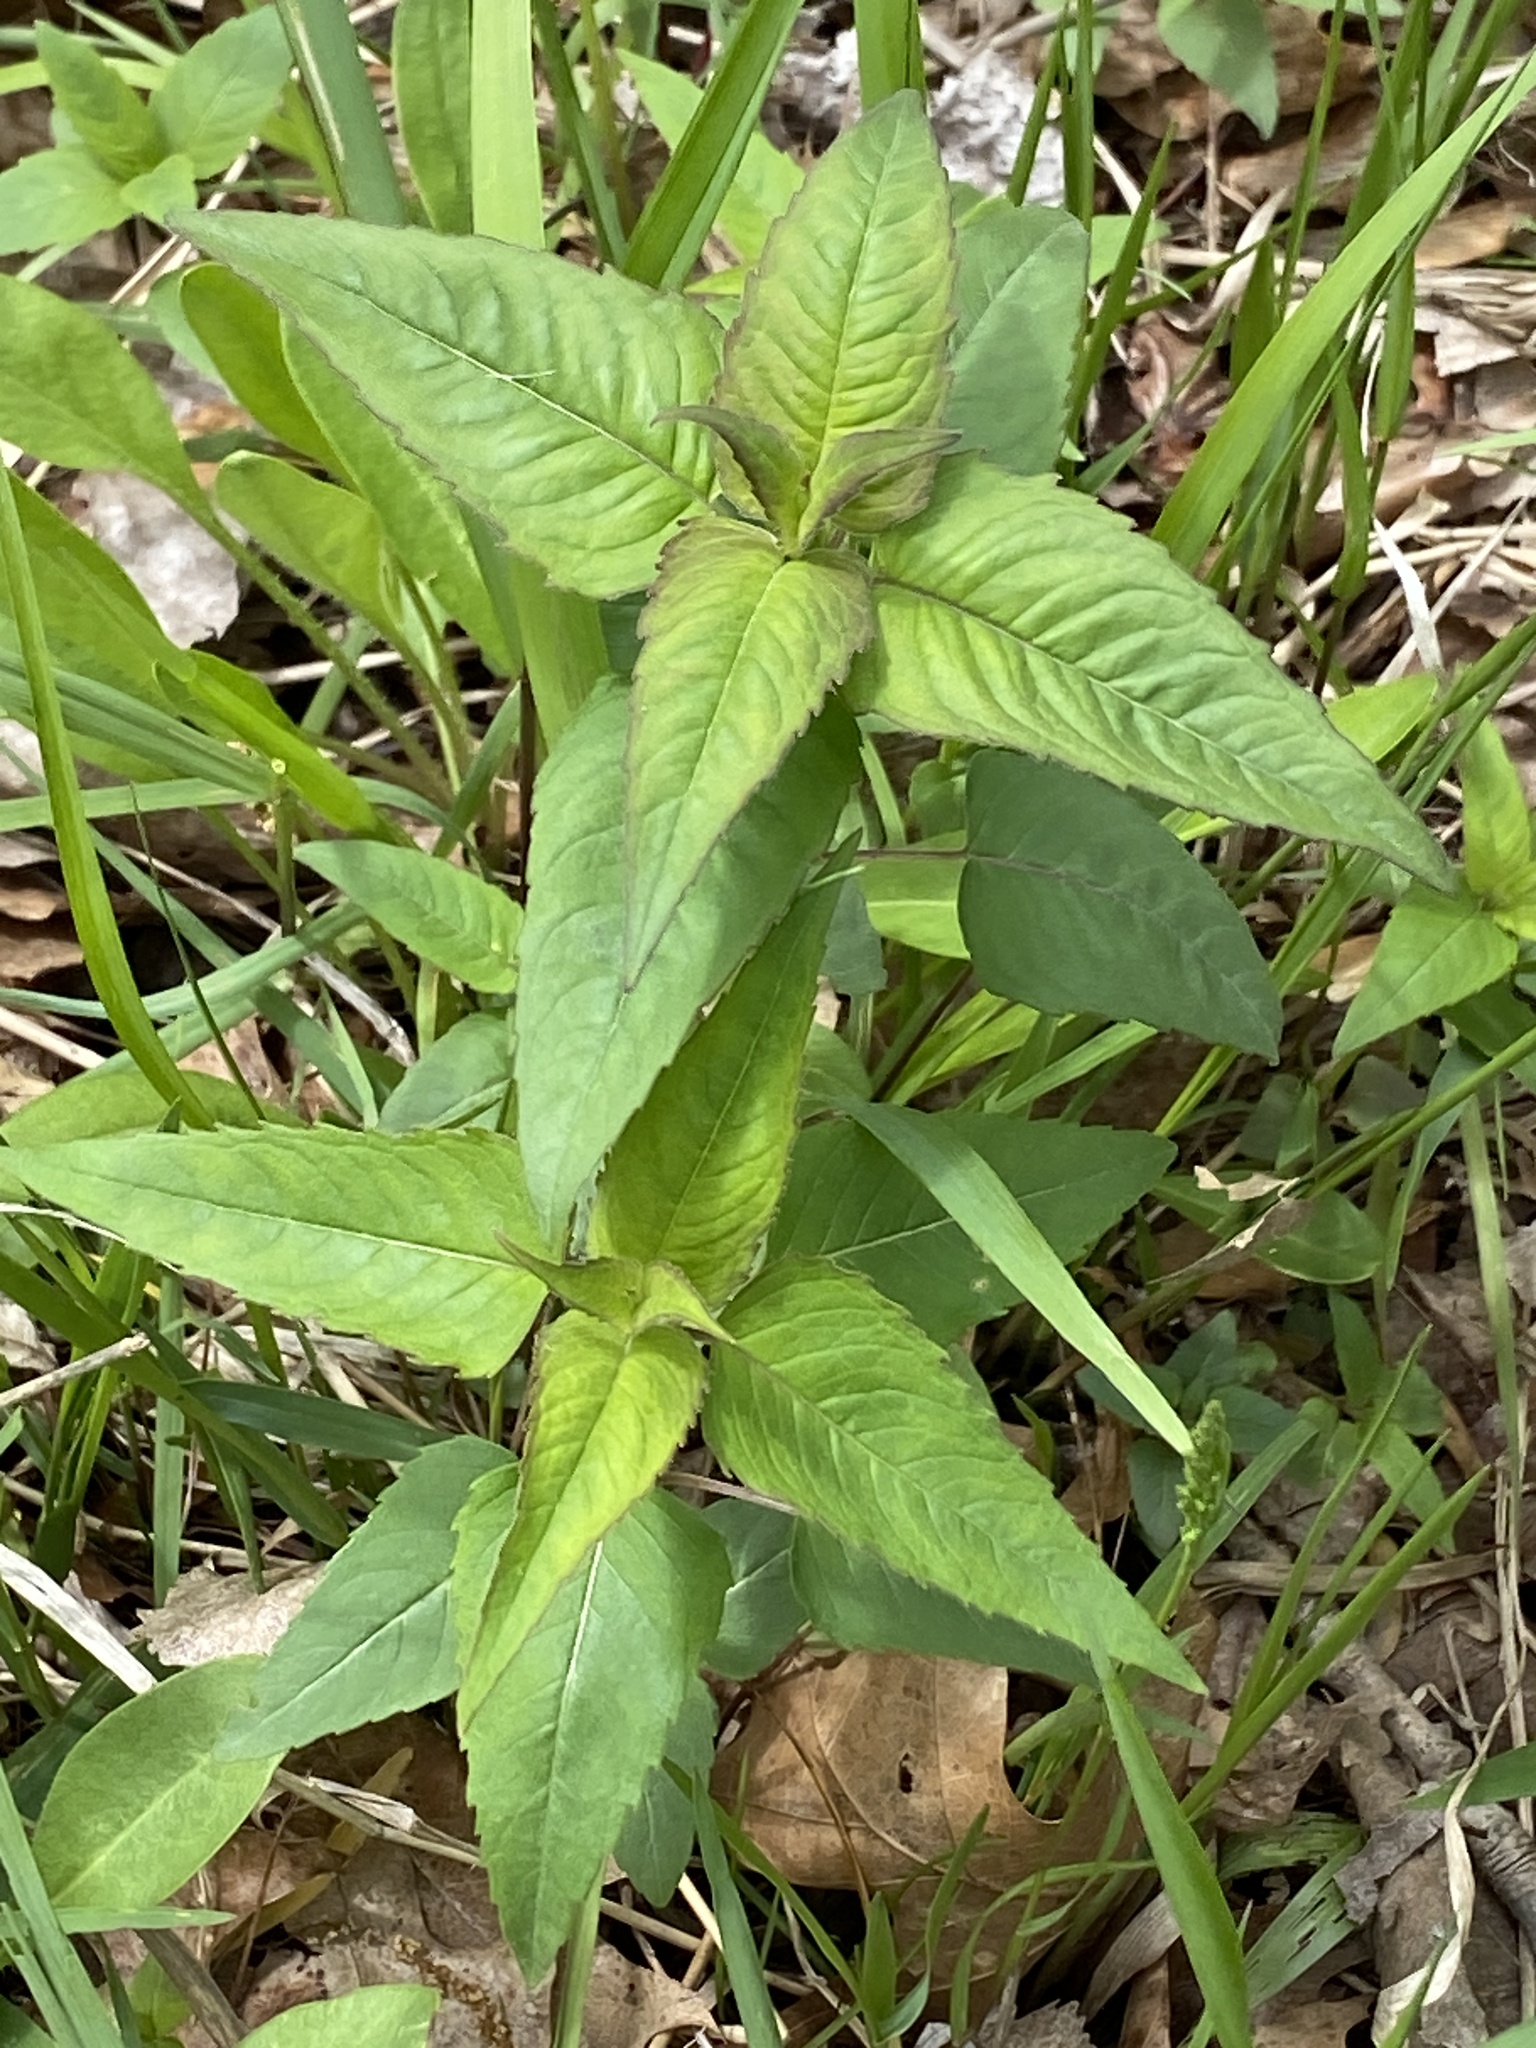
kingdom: Plantae
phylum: Tracheophyta
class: Magnoliopsida
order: Lamiales
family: Lamiaceae
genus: Monarda
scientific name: Monarda fistulosa
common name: Purple beebalm
